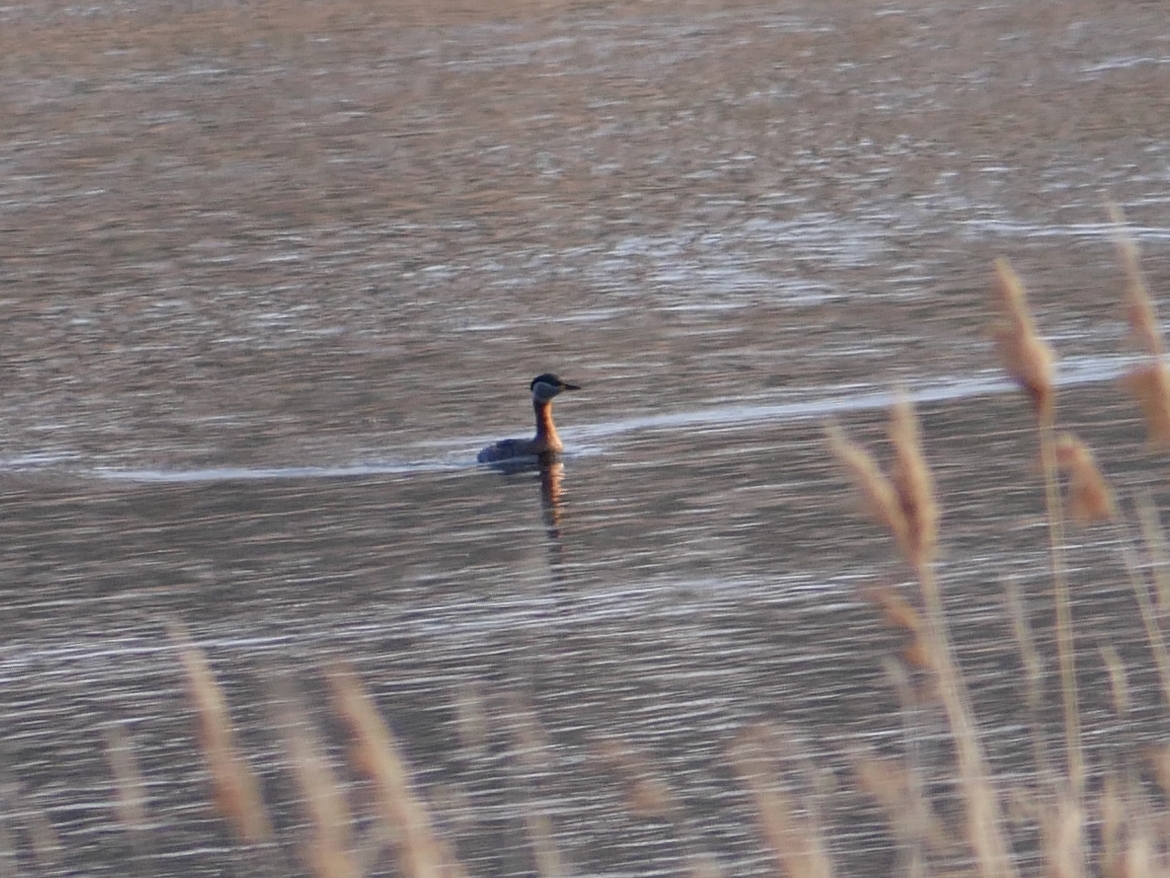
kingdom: Animalia
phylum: Chordata
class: Aves
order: Podicipediformes
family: Podicipedidae
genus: Podiceps
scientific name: Podiceps grisegena
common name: Red-necked grebe
